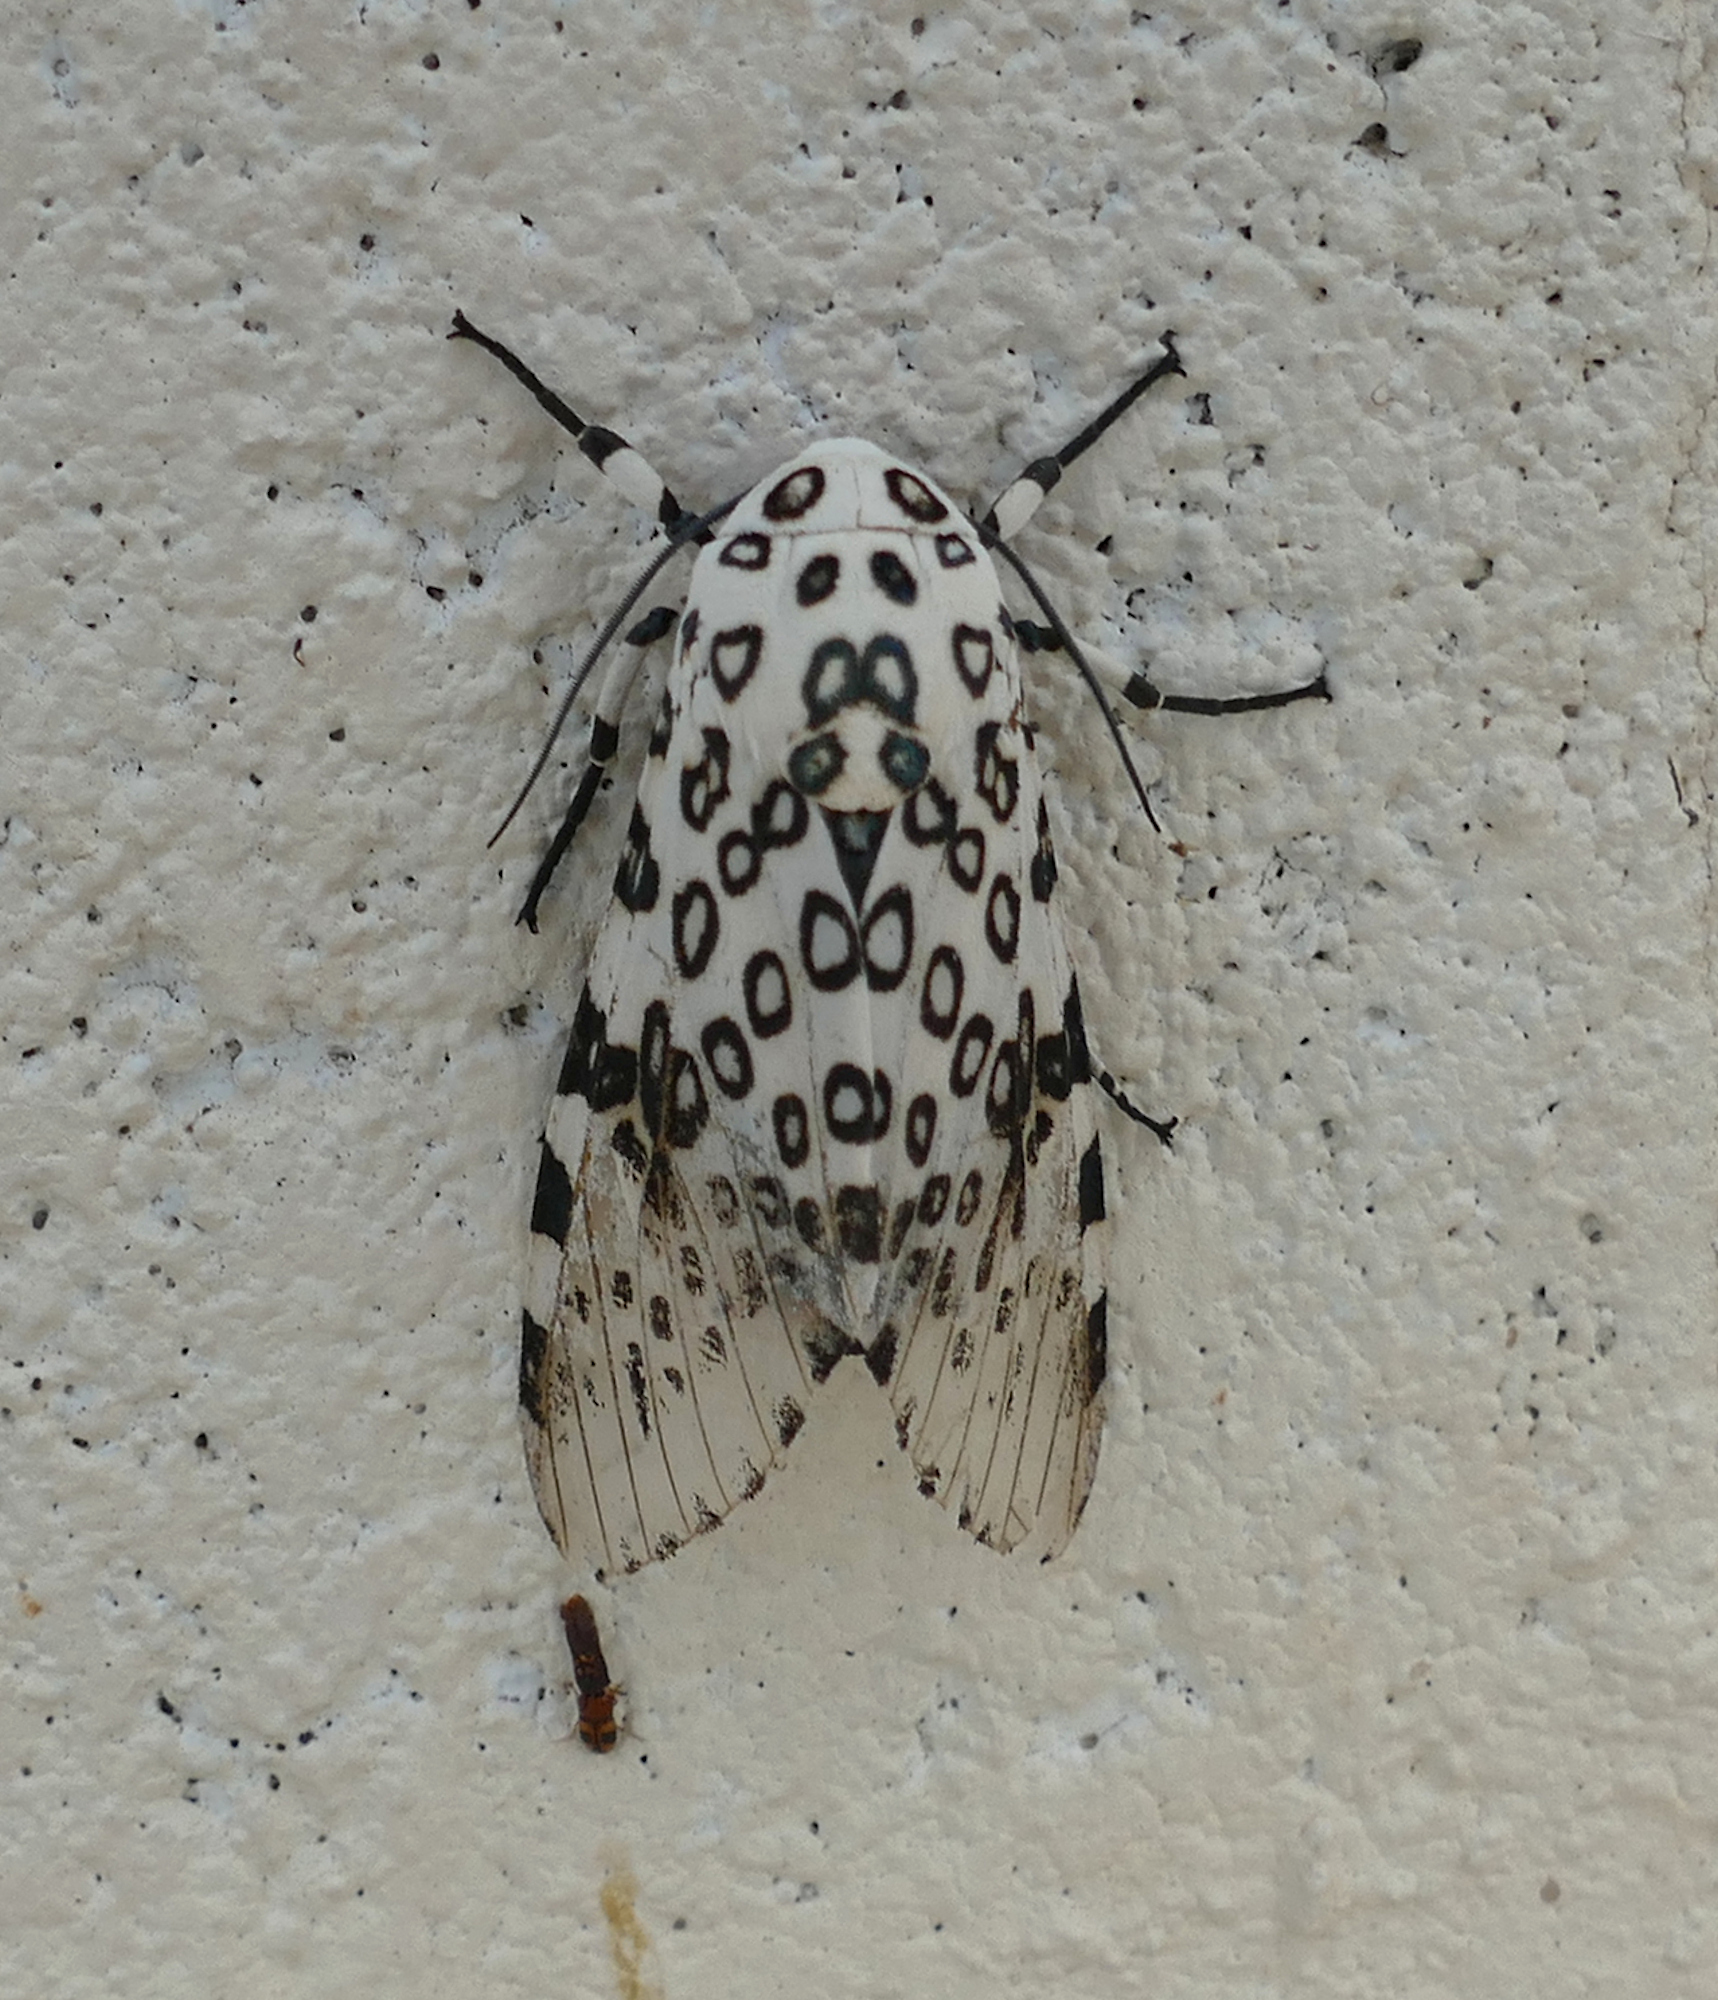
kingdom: Animalia
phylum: Arthropoda
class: Insecta
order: Lepidoptera
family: Erebidae
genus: Hypercompe
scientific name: Hypercompe scribonia
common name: Giant leopard moth
